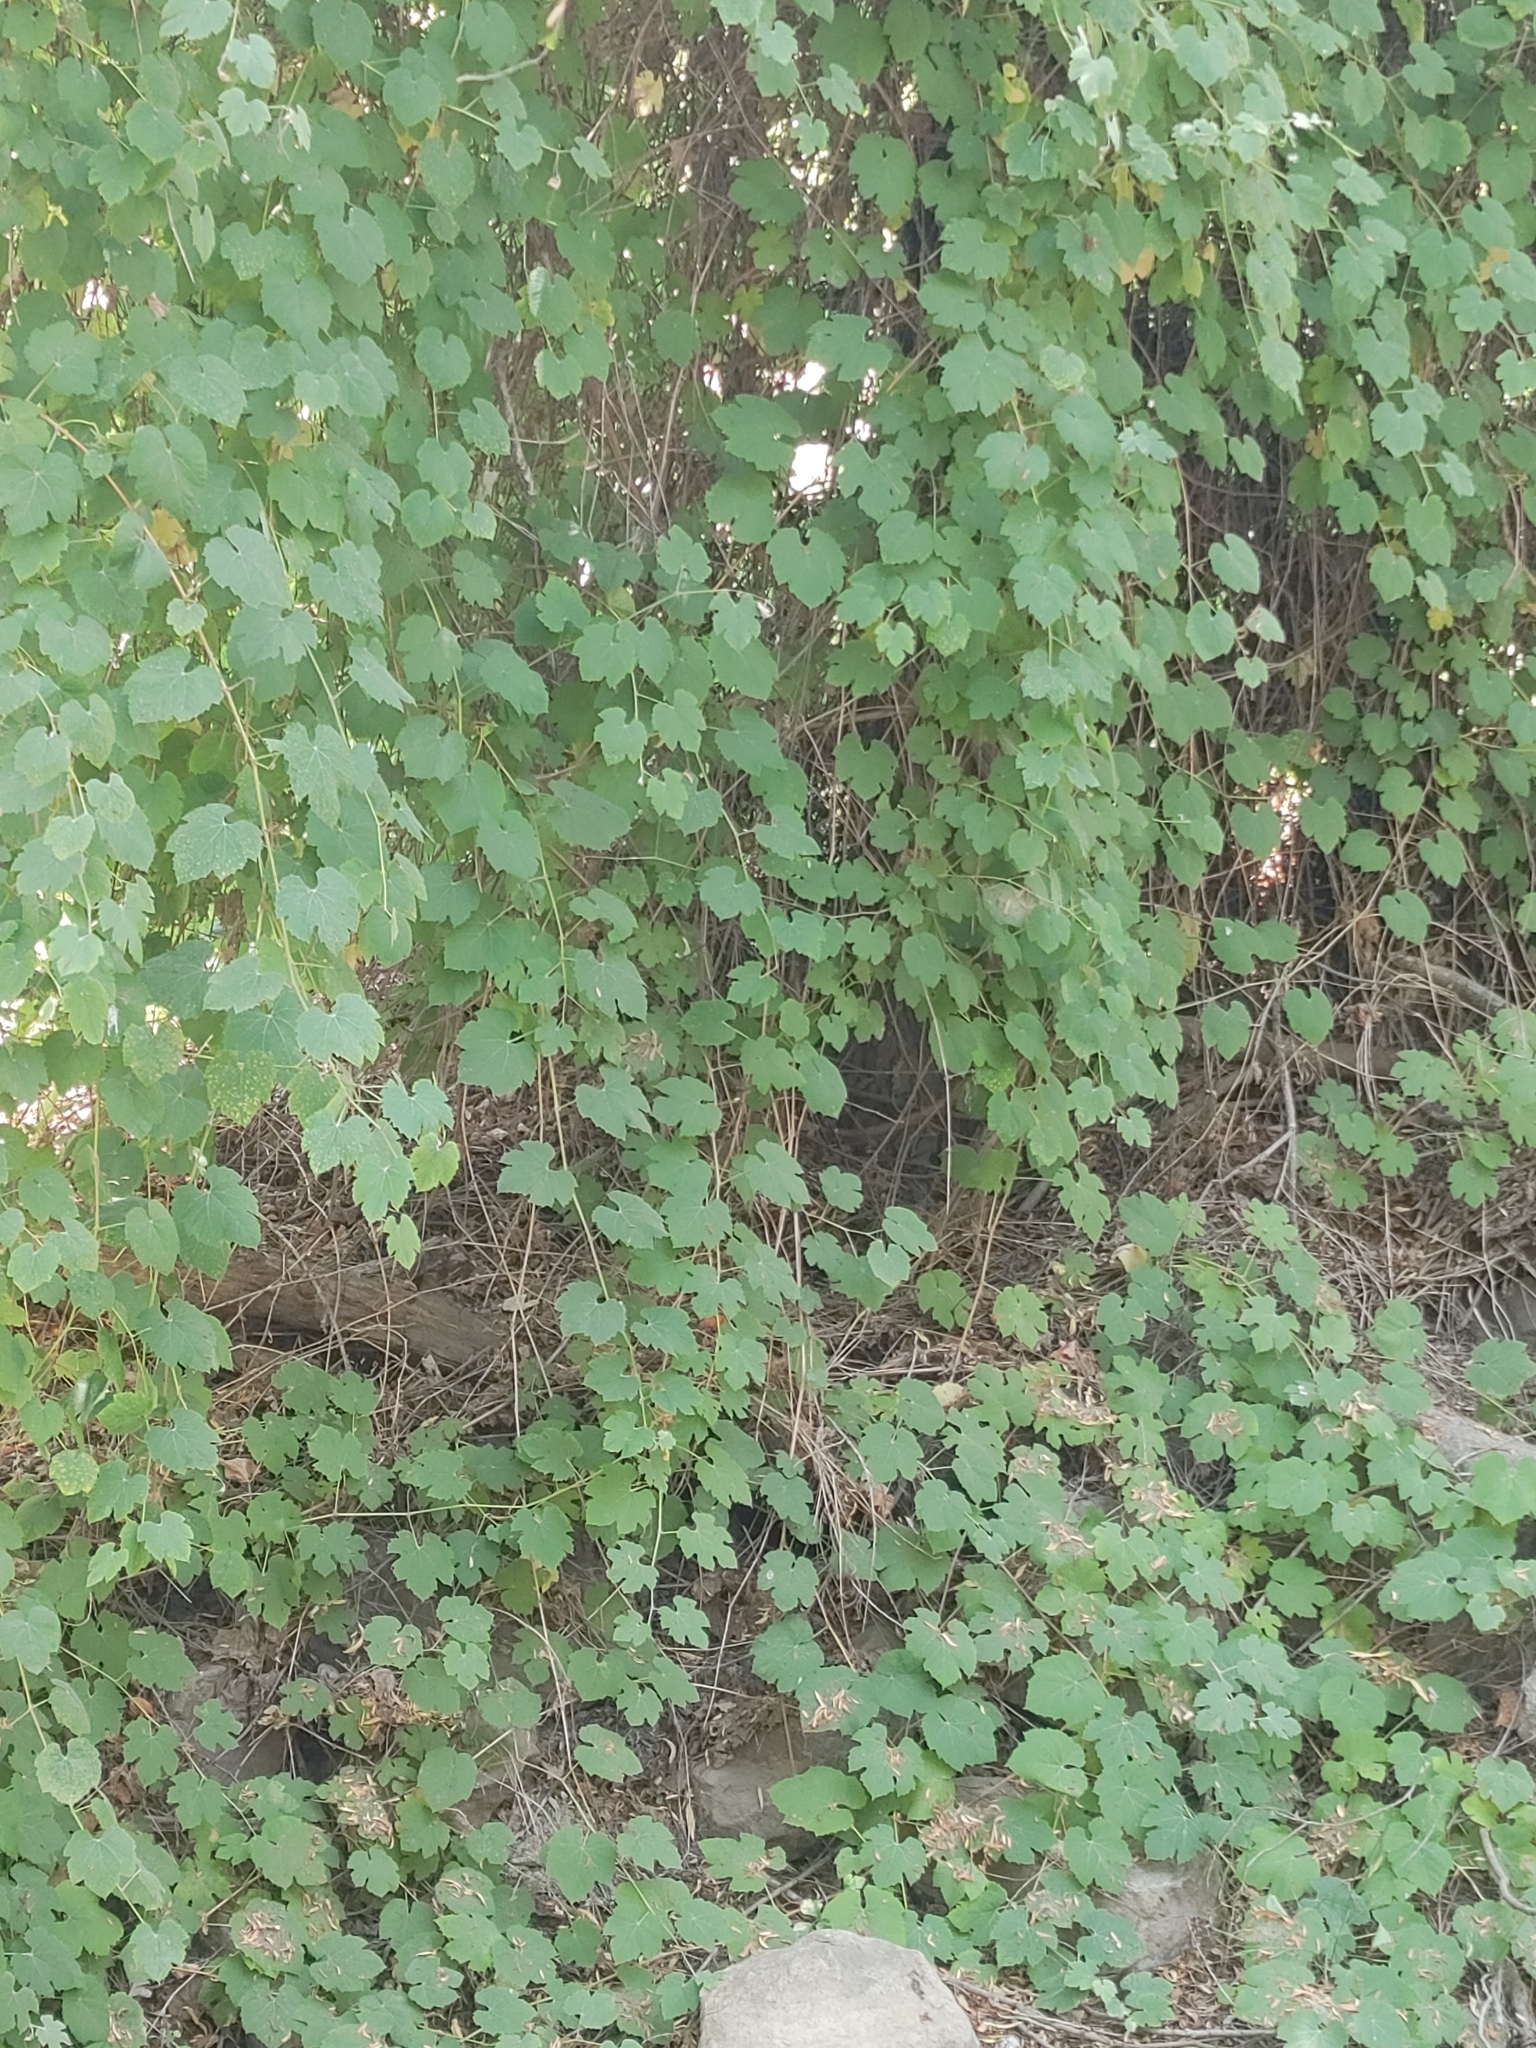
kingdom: Plantae
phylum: Tracheophyta
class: Magnoliopsida
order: Vitales
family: Vitaceae
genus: Vitis
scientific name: Vitis girdiana
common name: Desert wild grape
